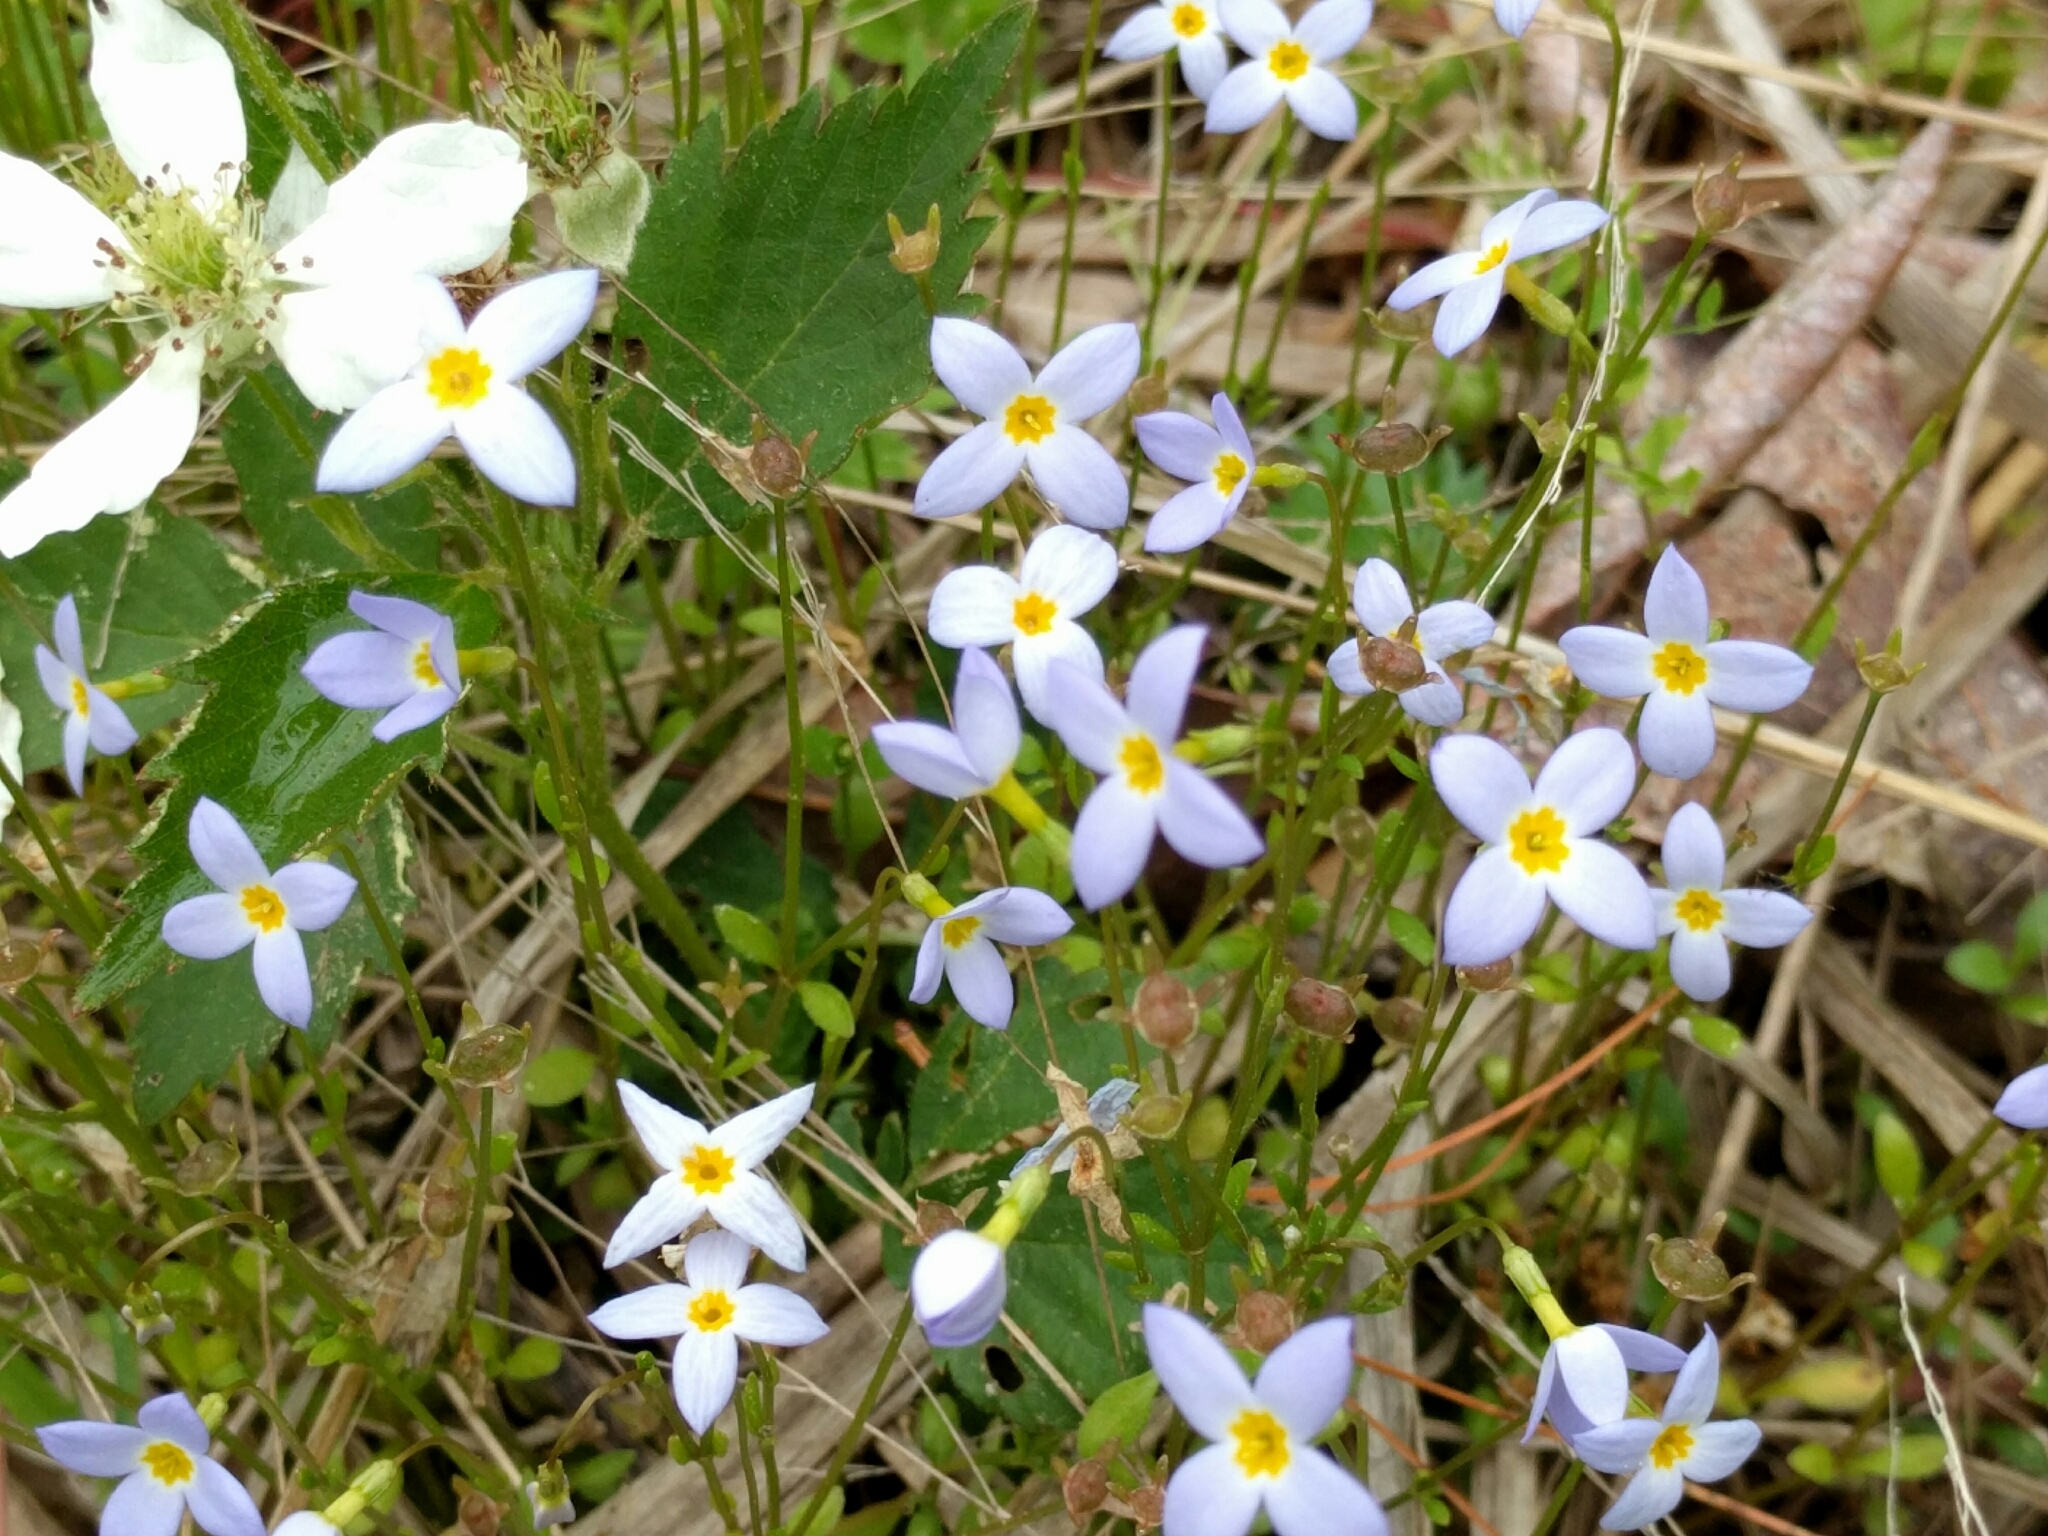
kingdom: Plantae
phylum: Tracheophyta
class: Magnoliopsida
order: Gentianales
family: Rubiaceae
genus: Houstonia
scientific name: Houstonia caerulea
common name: Bluets
